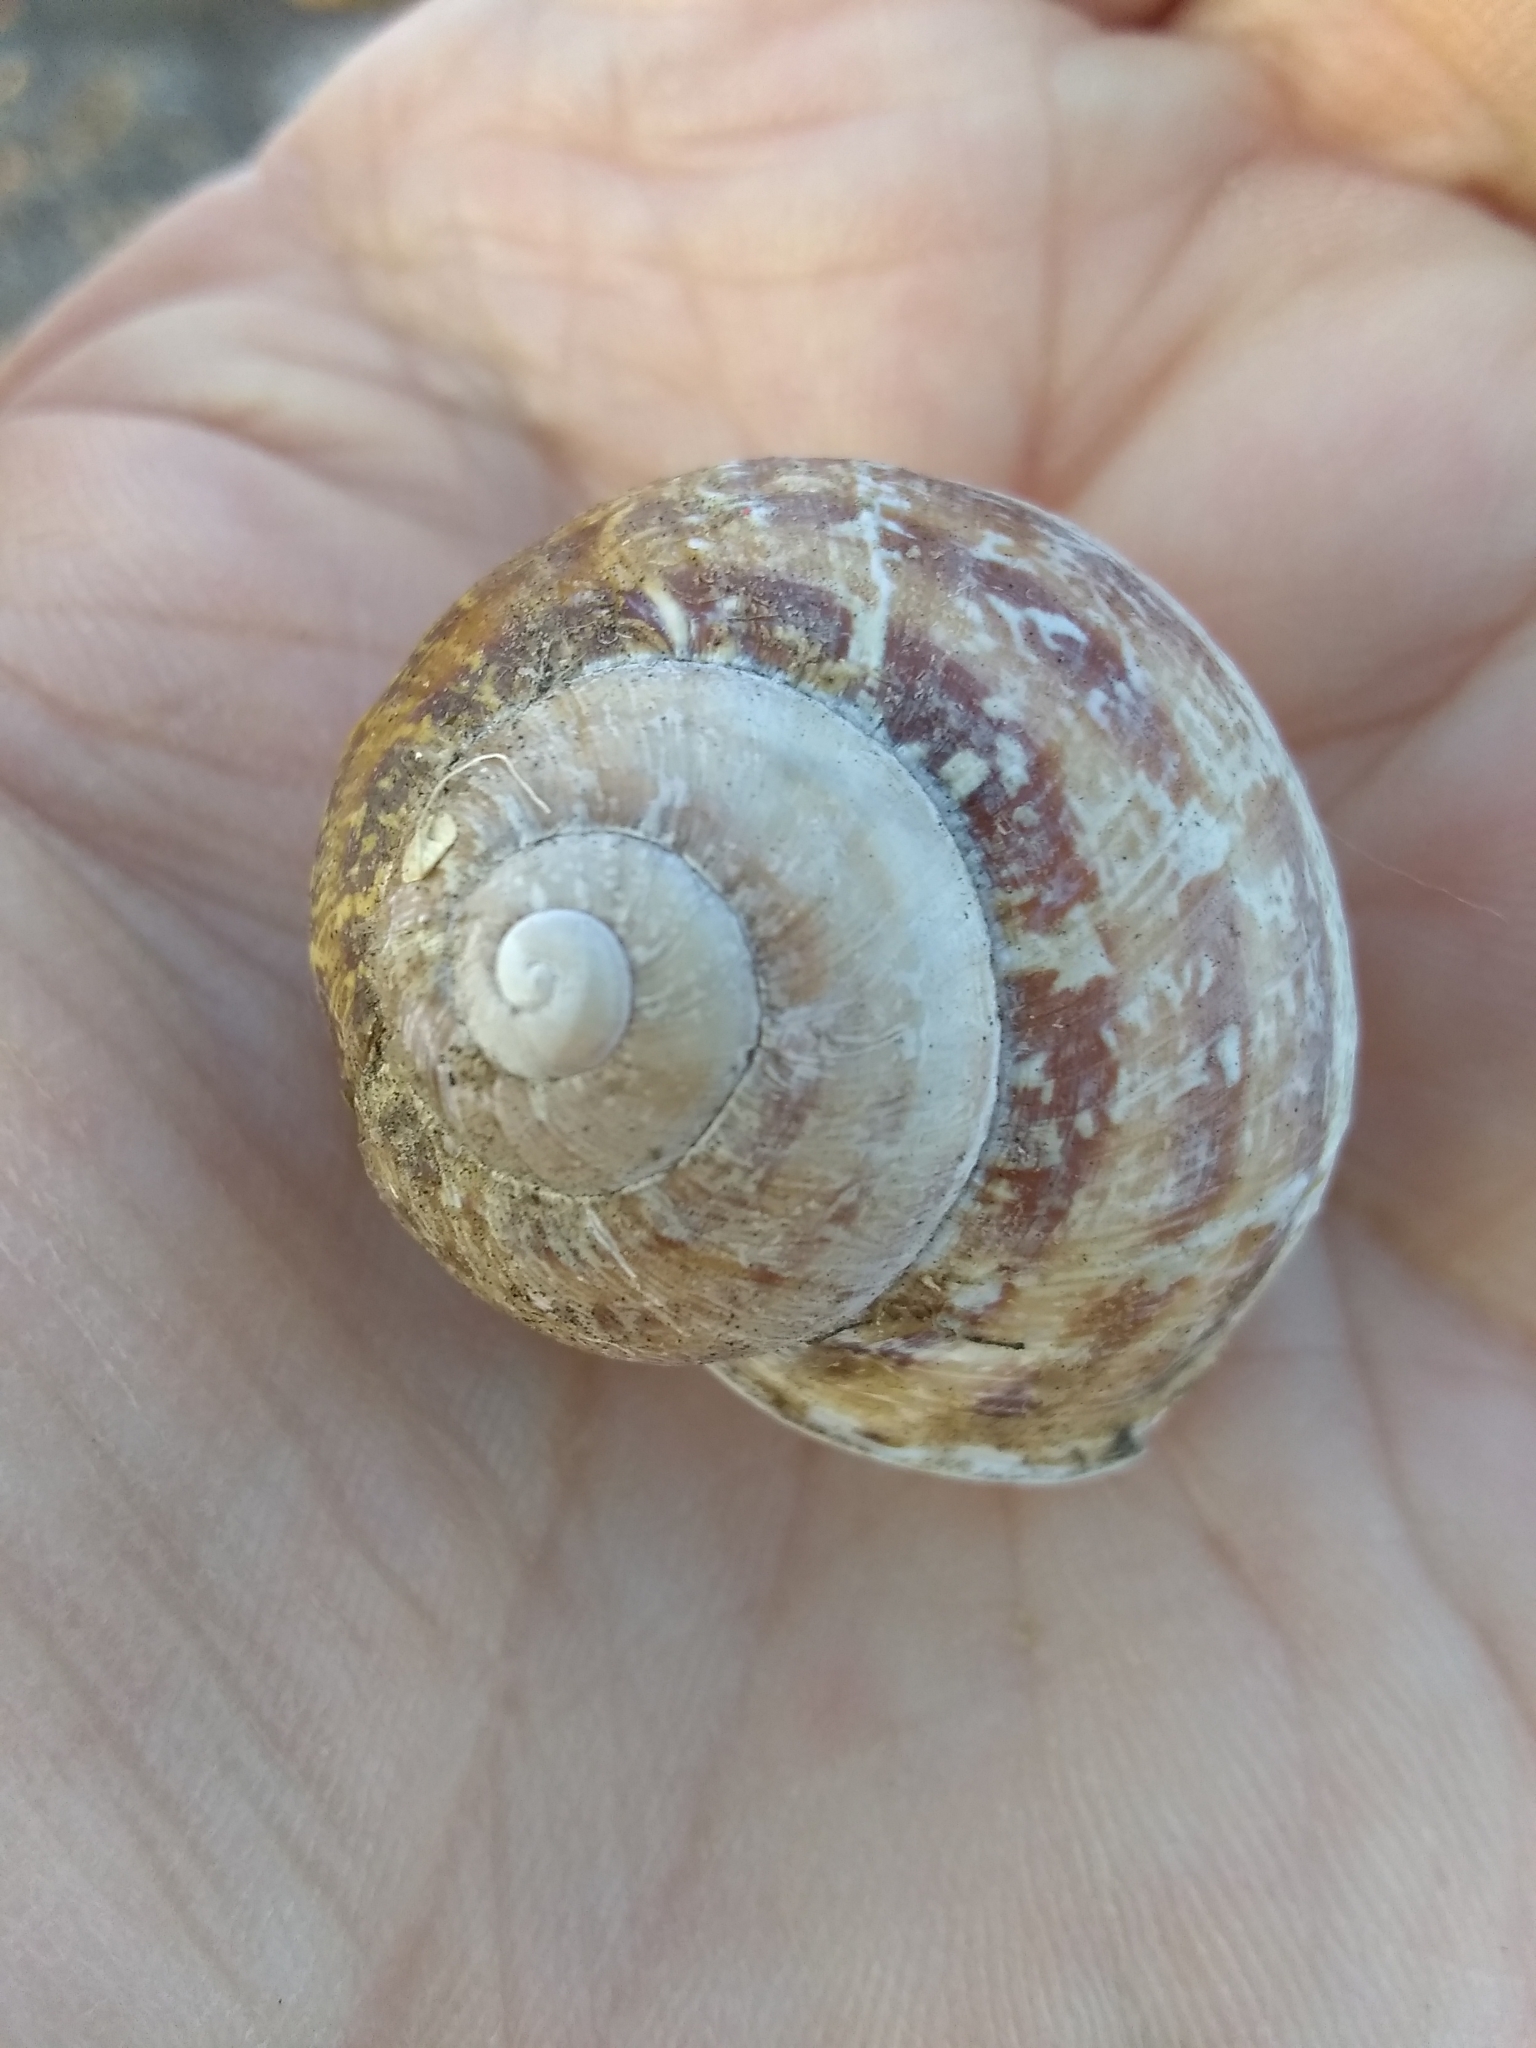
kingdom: Animalia
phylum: Mollusca
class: Gastropoda
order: Stylommatophora
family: Helicidae
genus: Cornu
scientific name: Cornu aspersum
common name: Brown garden snail
